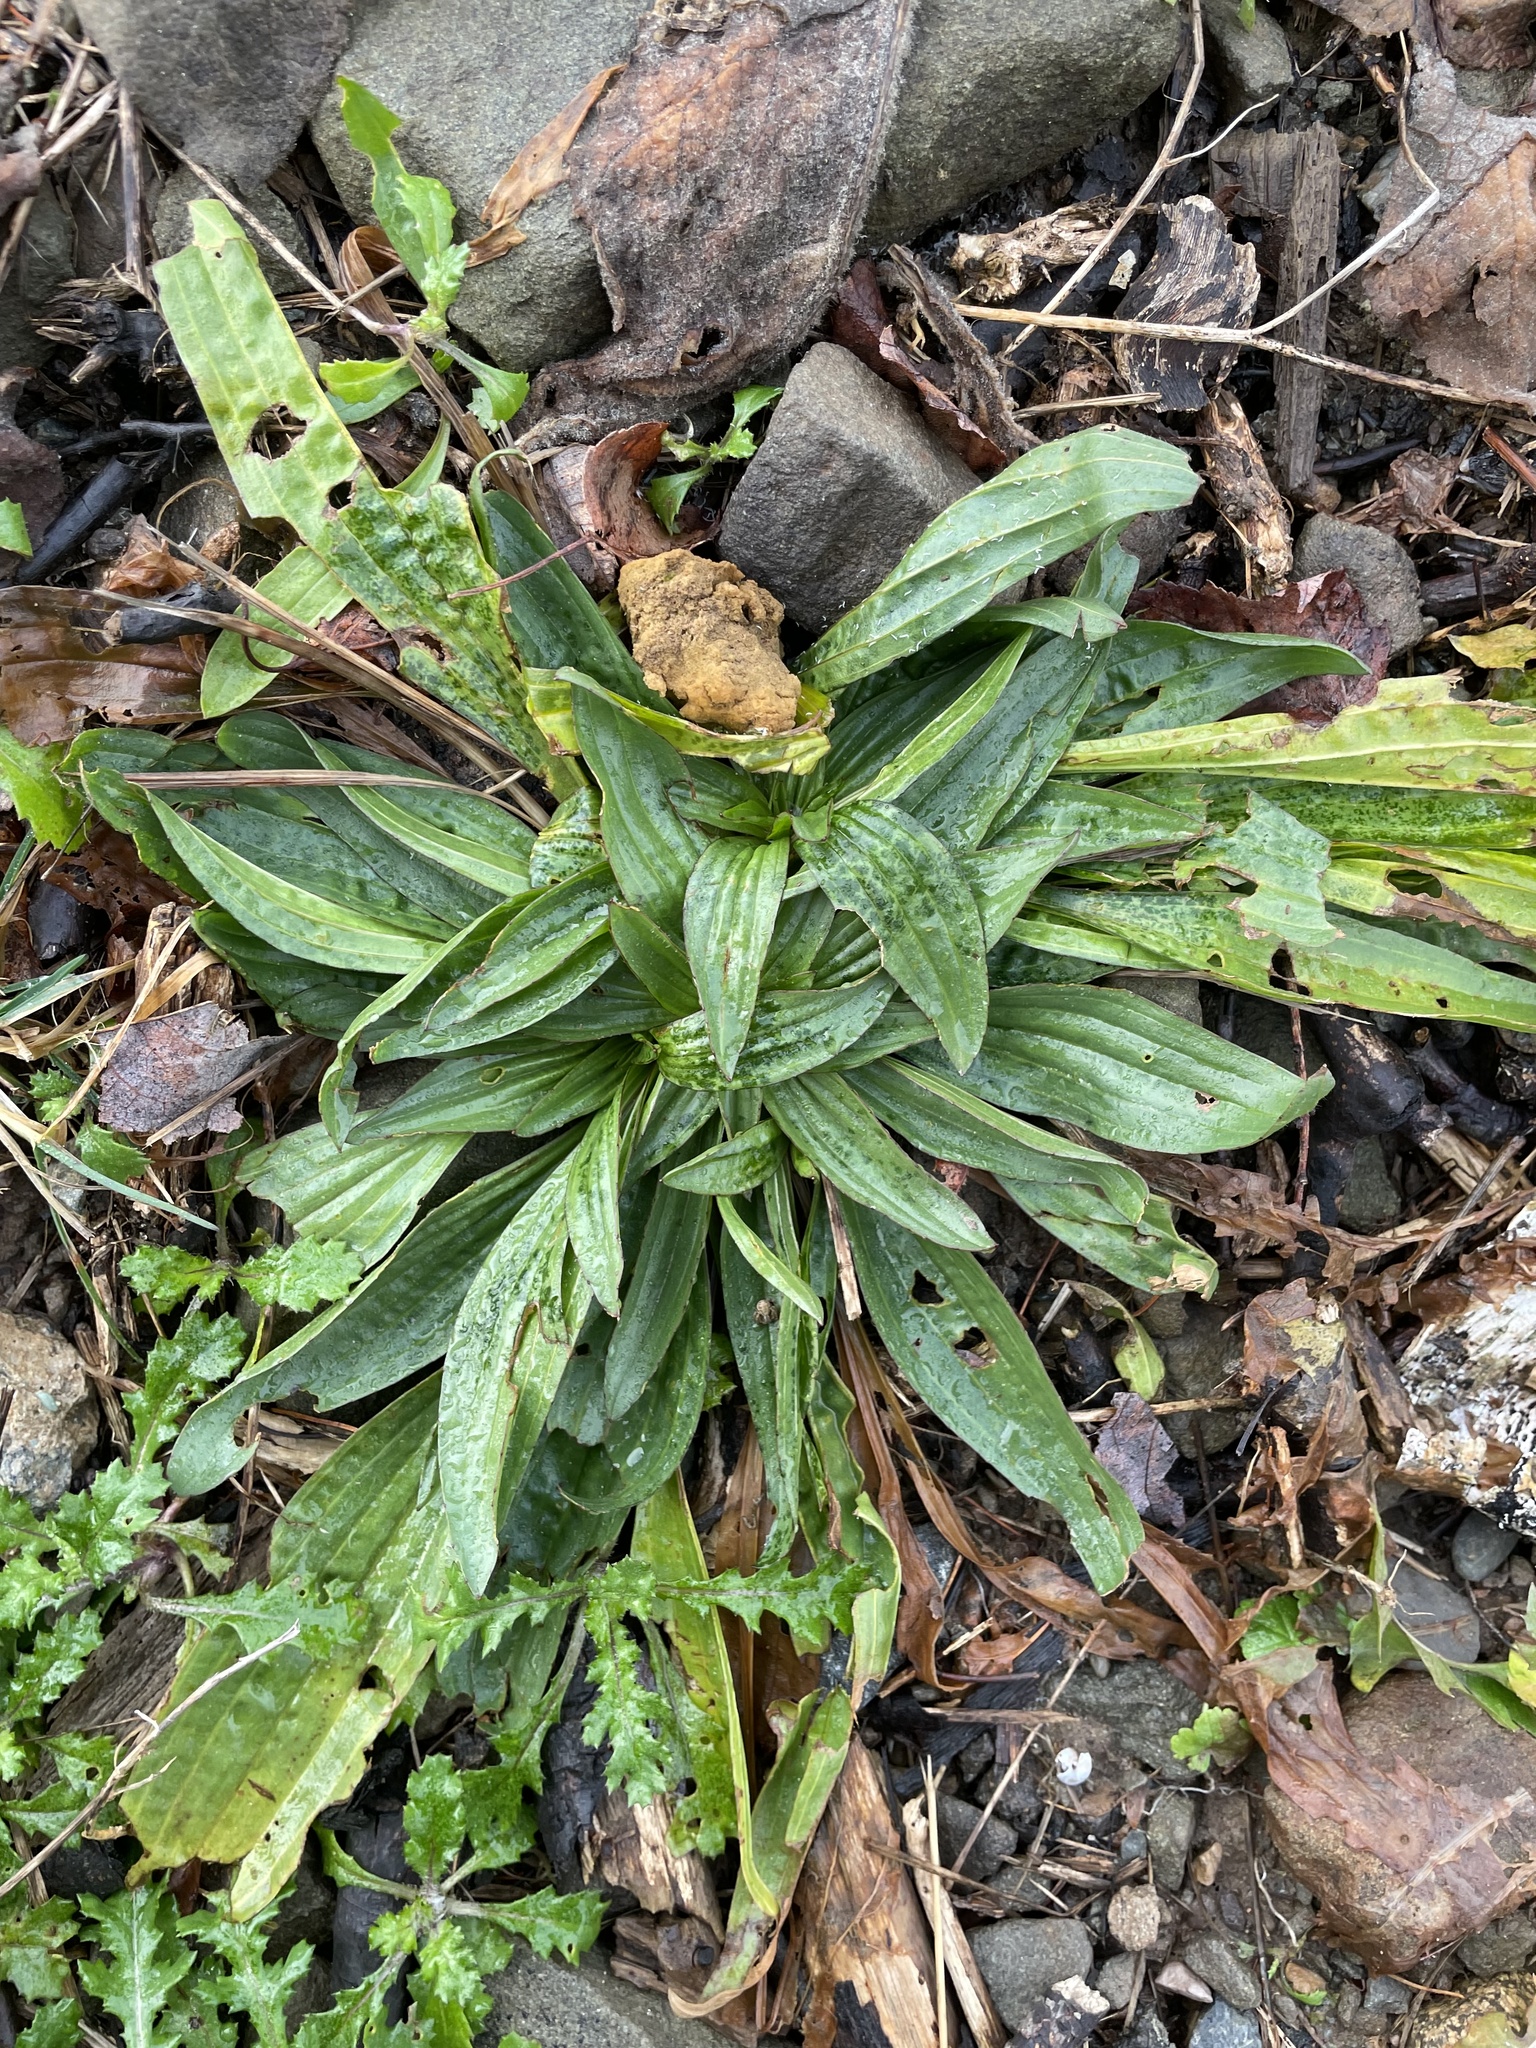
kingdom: Plantae
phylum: Tracheophyta
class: Magnoliopsida
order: Lamiales
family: Plantaginaceae
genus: Plantago
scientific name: Plantago lanceolata
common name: Ribwort plantain
